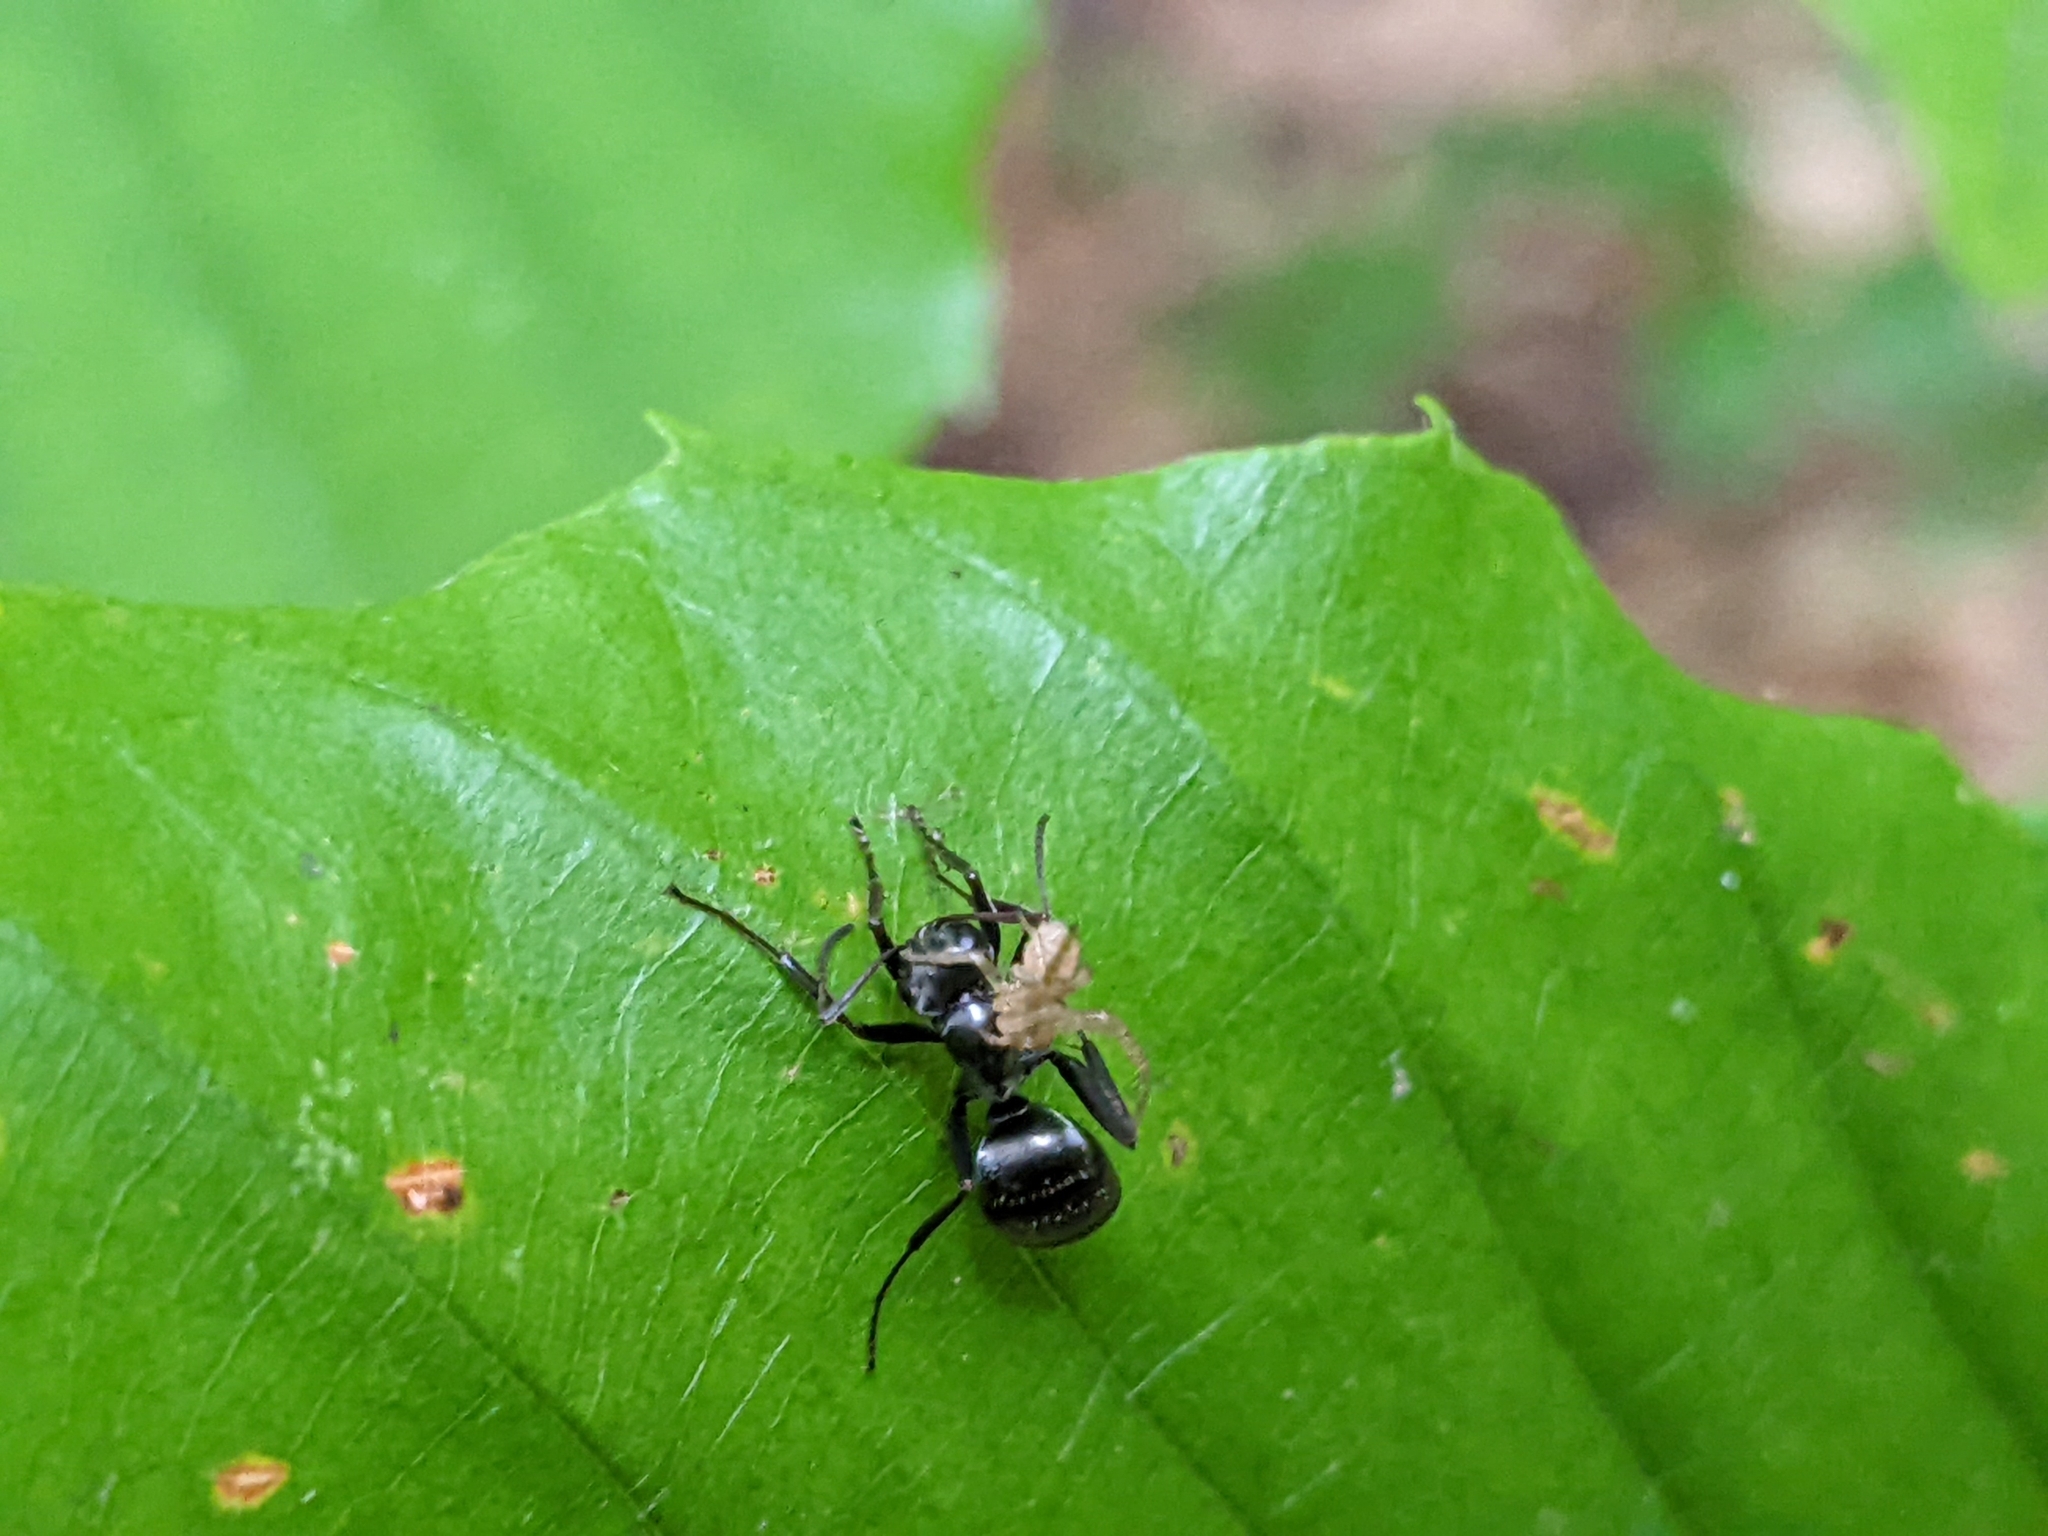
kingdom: Animalia
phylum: Arthropoda
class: Insecta
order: Hymenoptera
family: Formicidae
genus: Formica
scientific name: Formica subsericea
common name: Silky field ant
